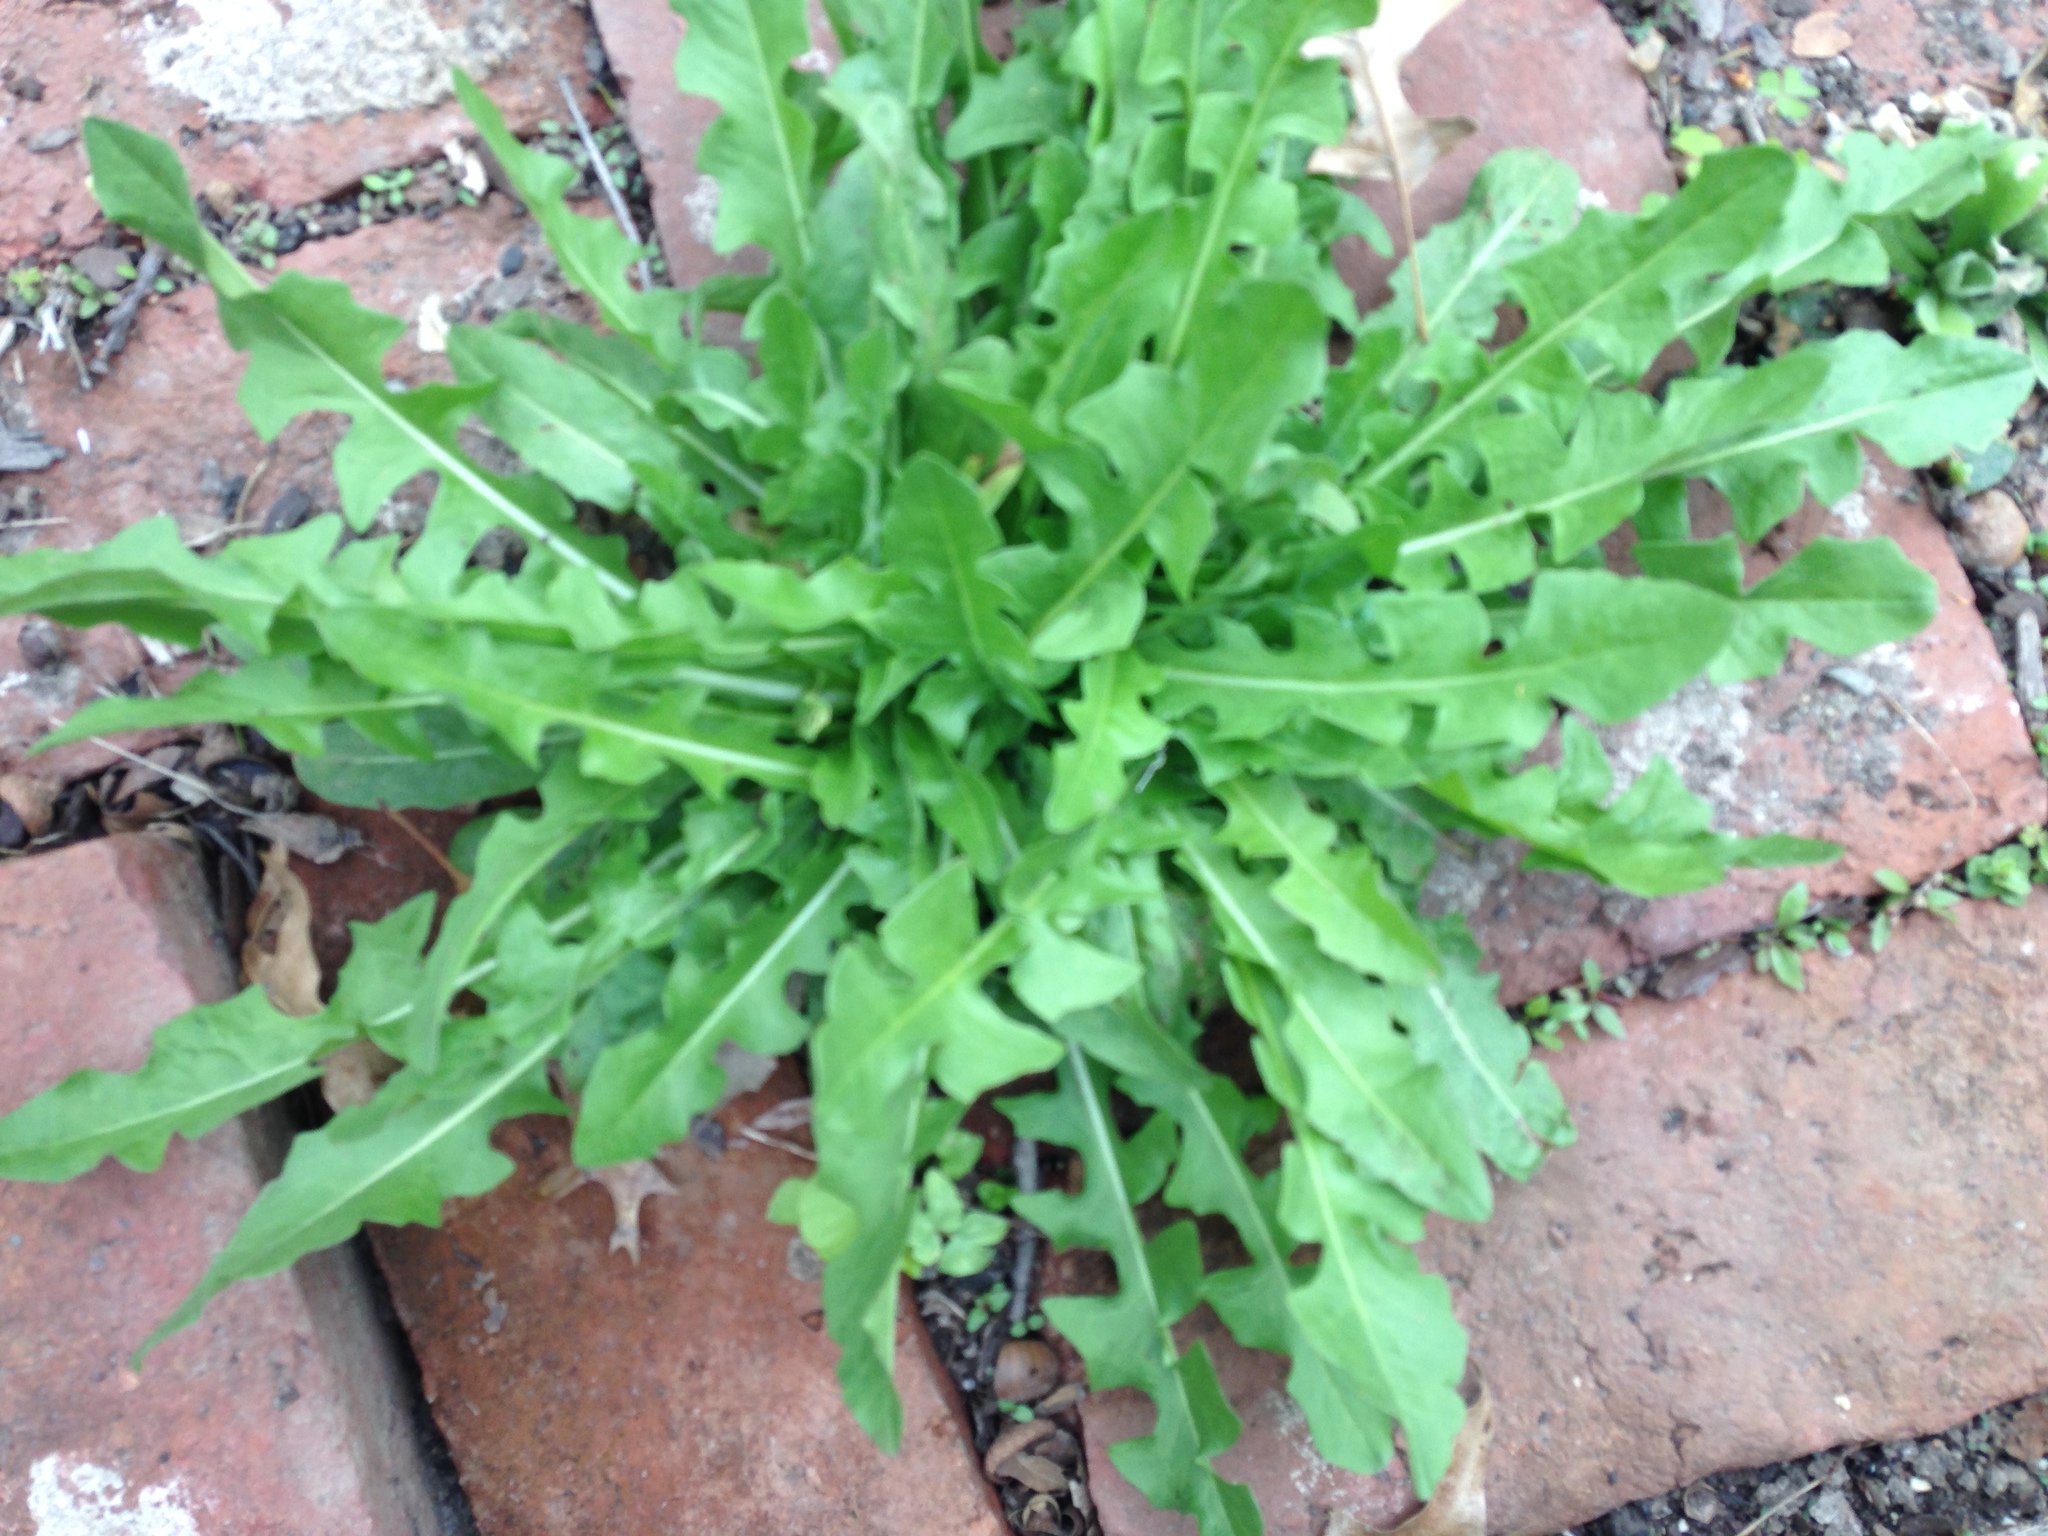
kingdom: Plantae
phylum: Tracheophyta
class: Magnoliopsida
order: Asterales
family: Asteraceae
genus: Cichorium
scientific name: Cichorium intybus
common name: Chicory
